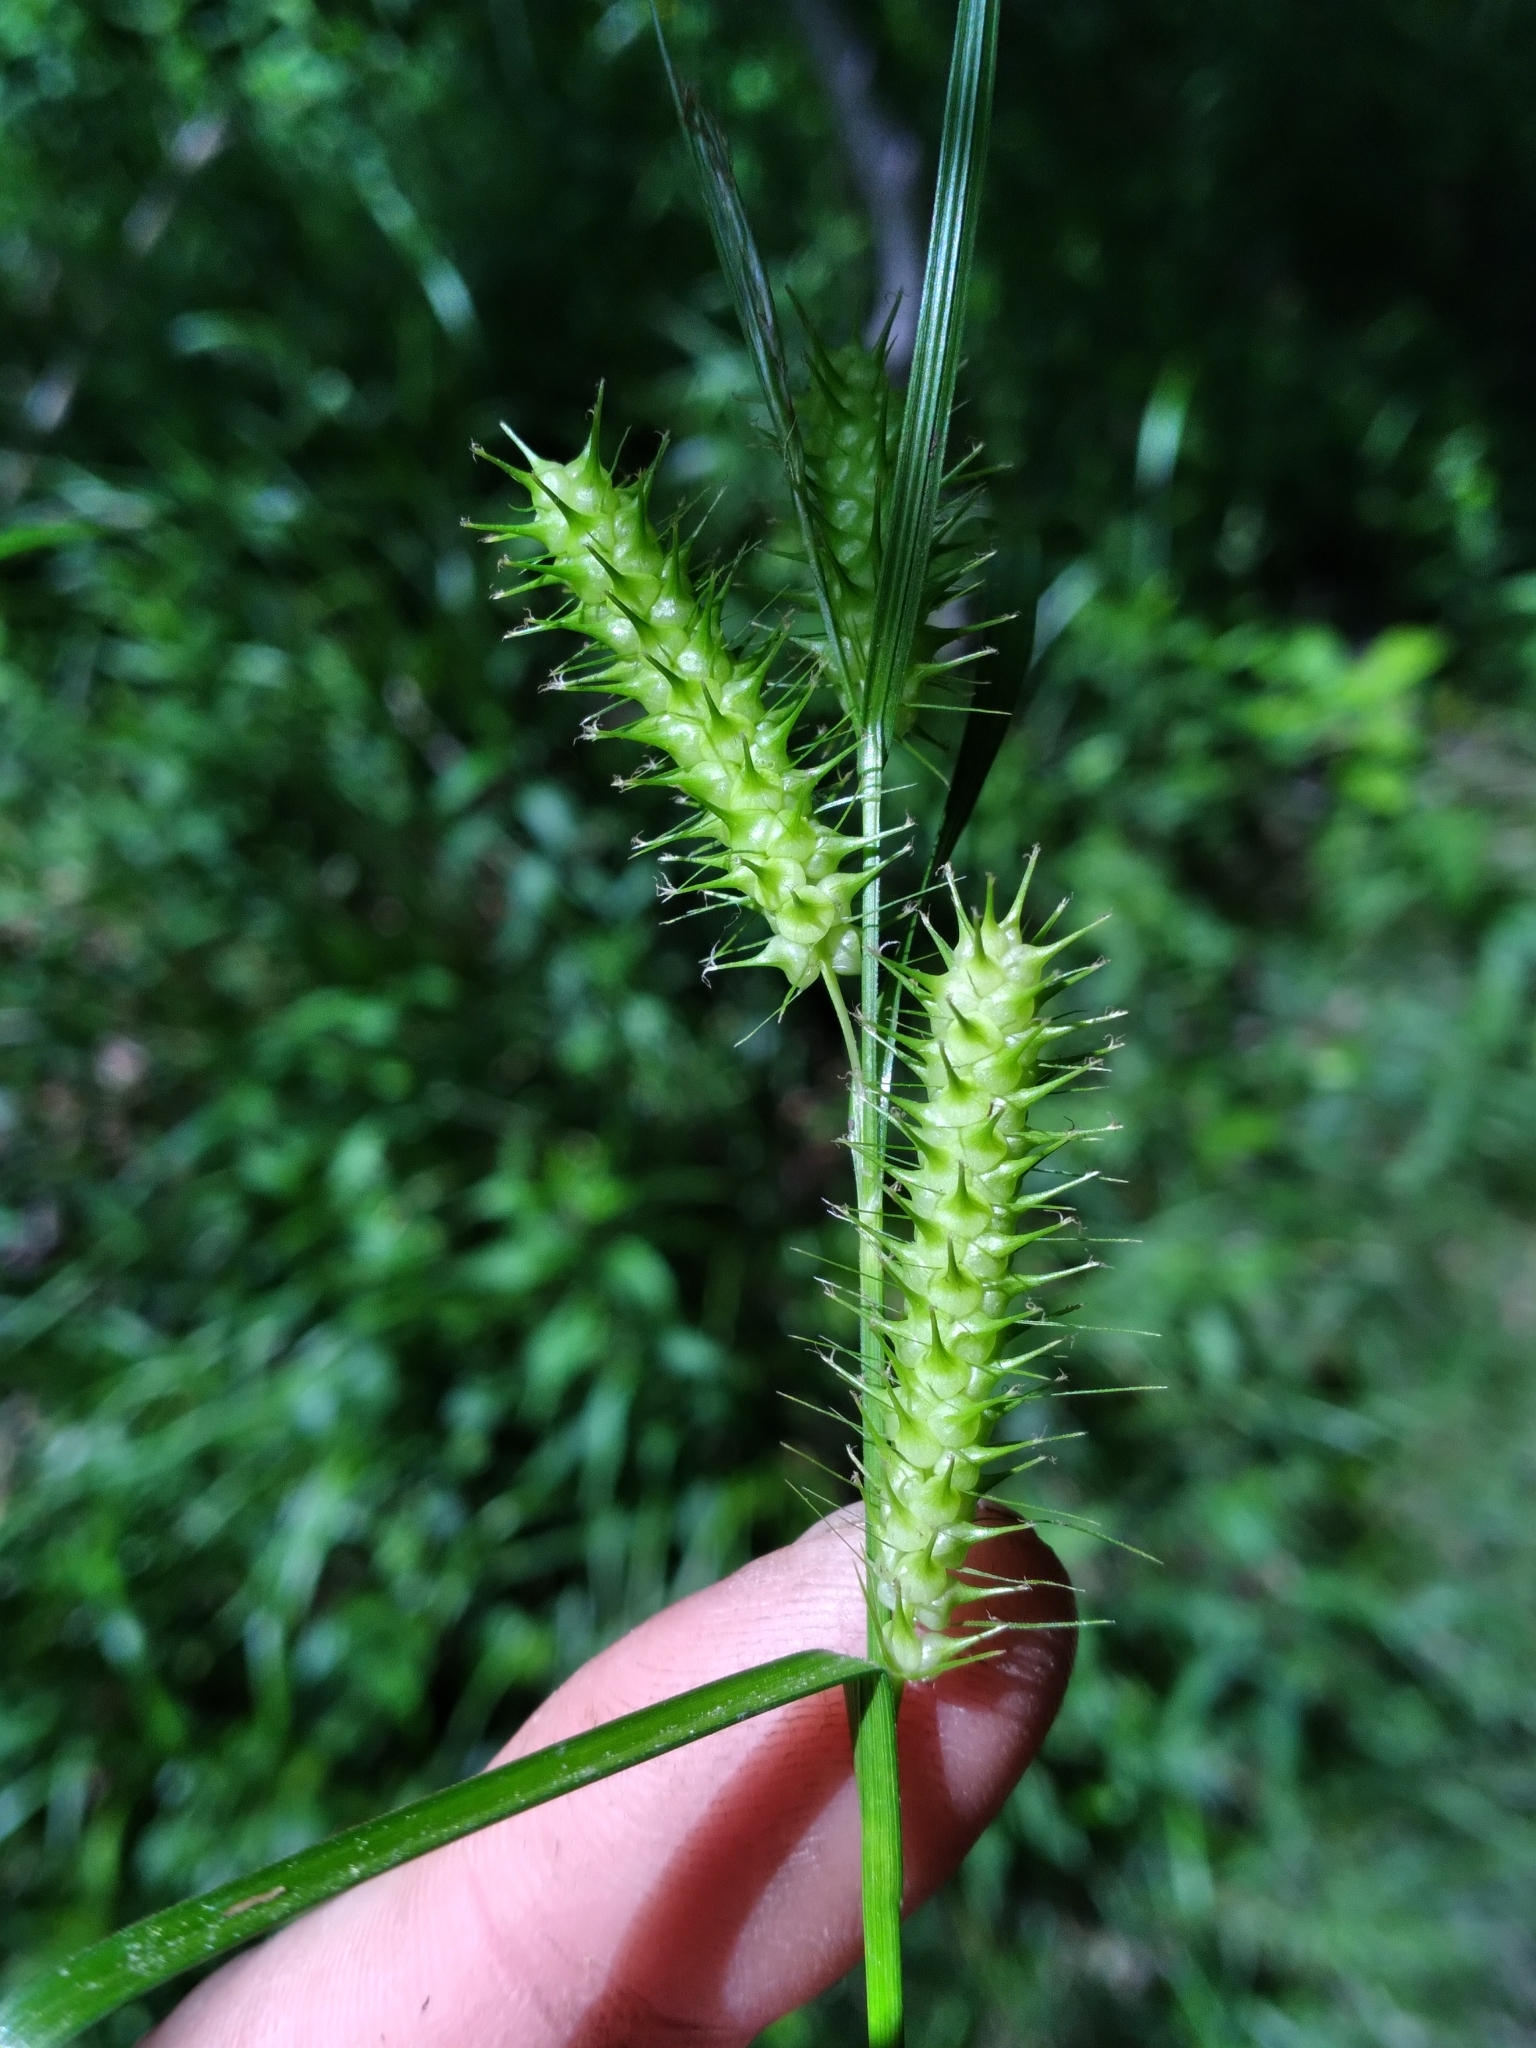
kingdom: Plantae
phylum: Tracheophyta
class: Liliopsida
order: Poales
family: Cyperaceae
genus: Carex
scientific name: Carex baileyi
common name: Bailey's sedge
